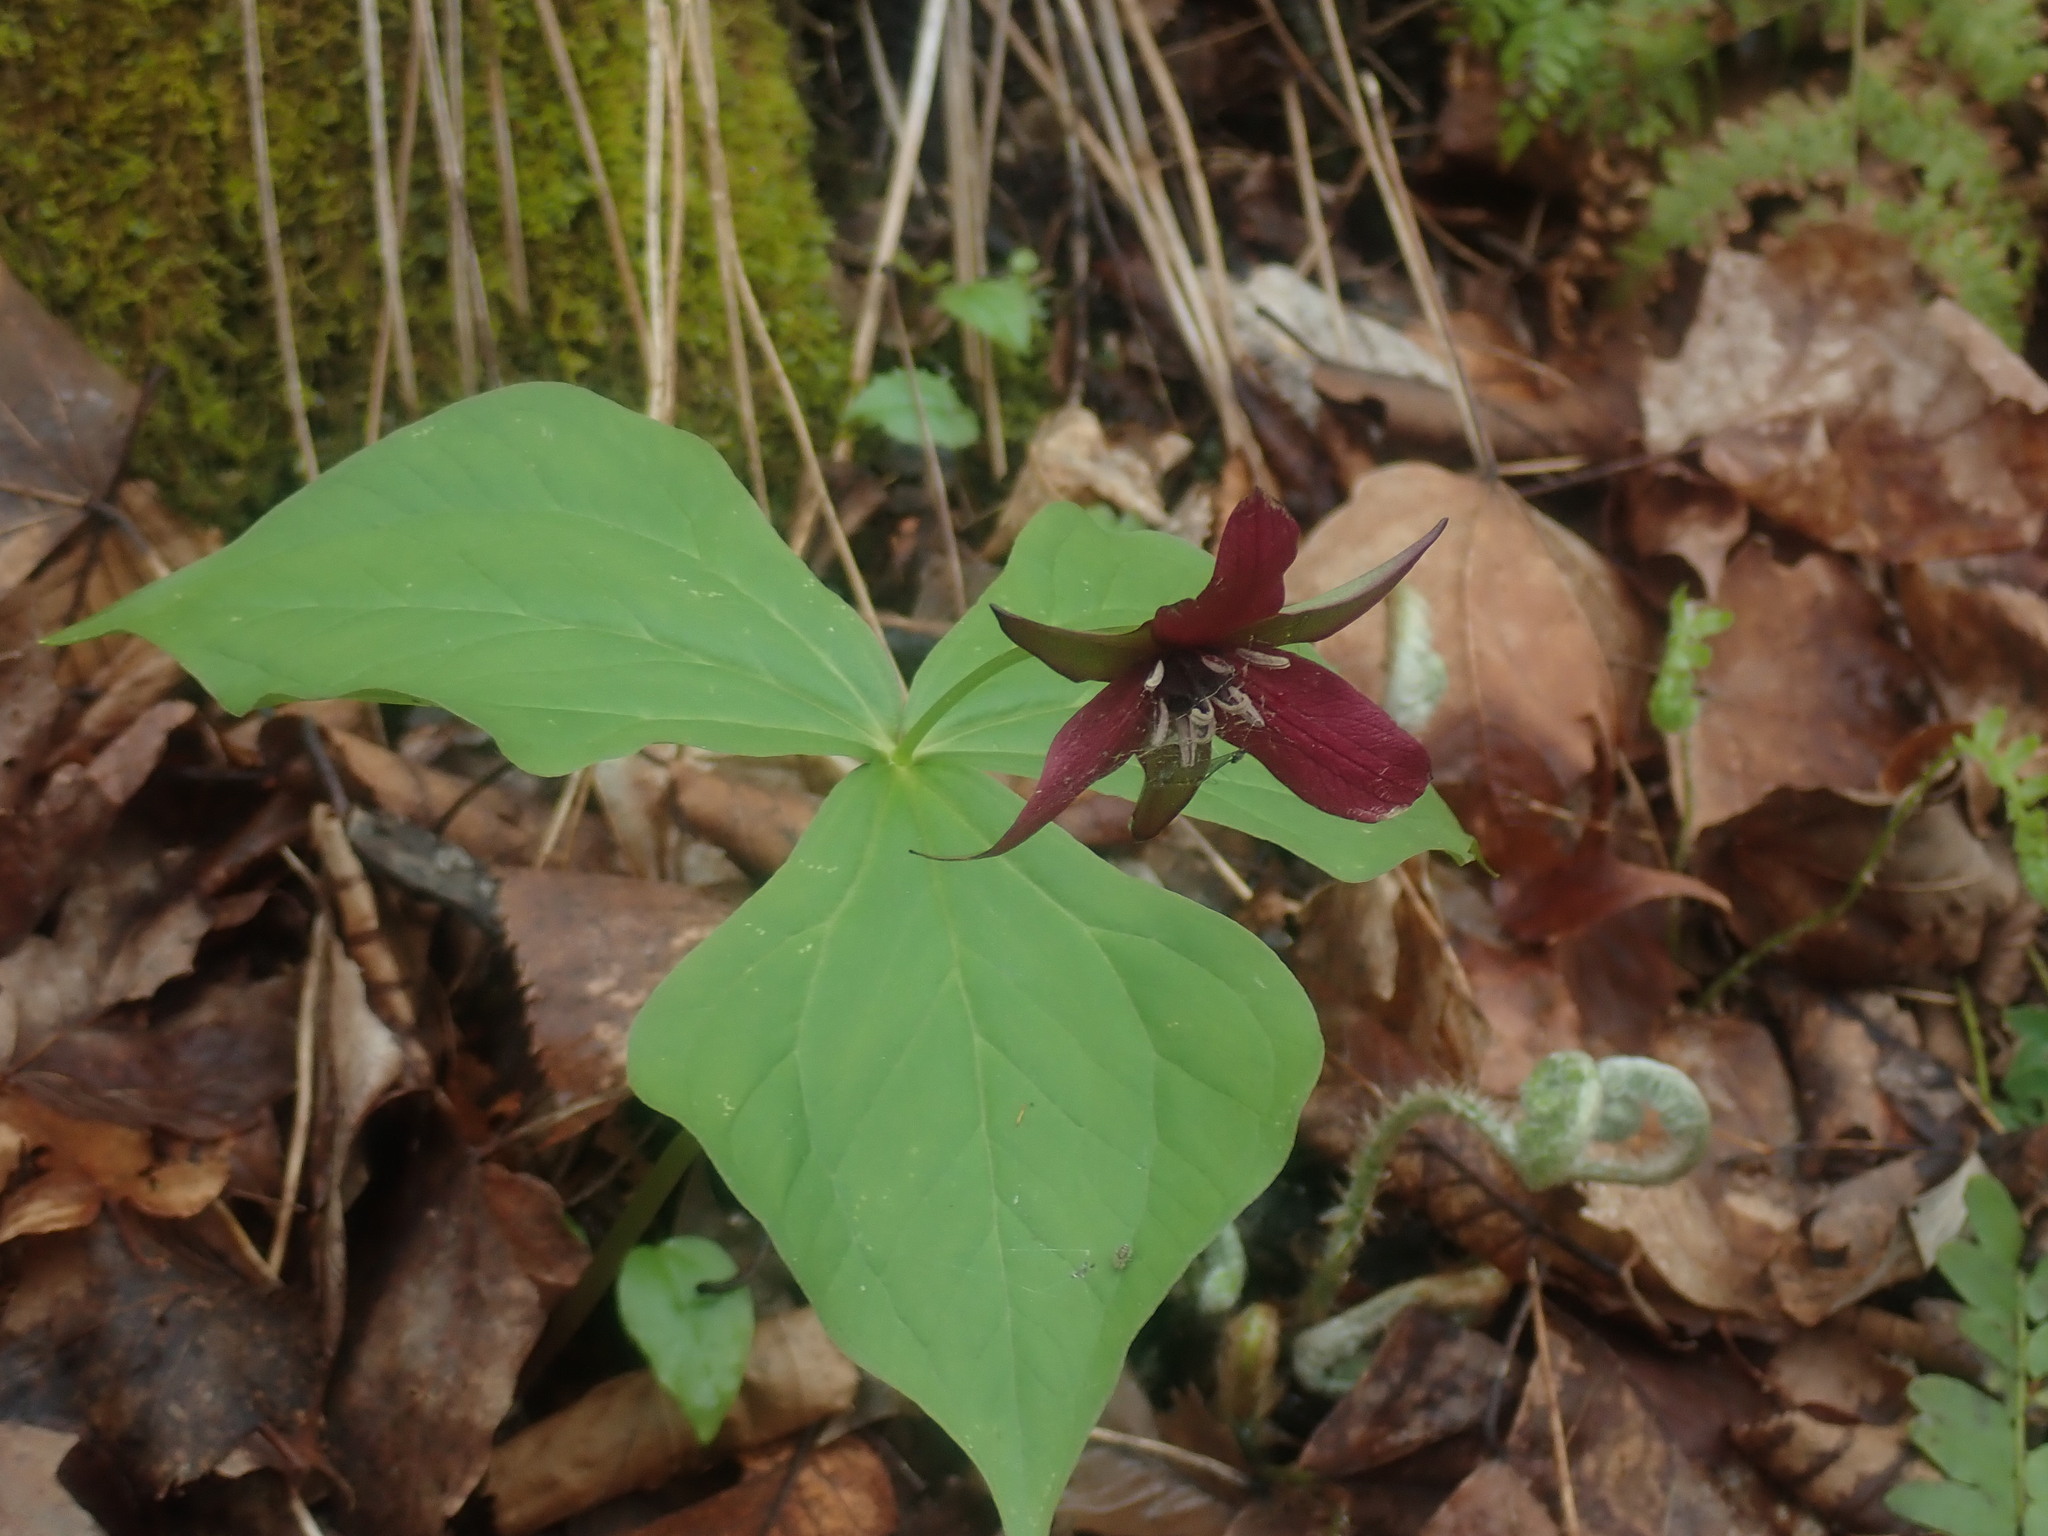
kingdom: Plantae
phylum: Tracheophyta
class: Liliopsida
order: Liliales
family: Melanthiaceae
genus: Trillium
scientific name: Trillium erectum
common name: Purple trillium
